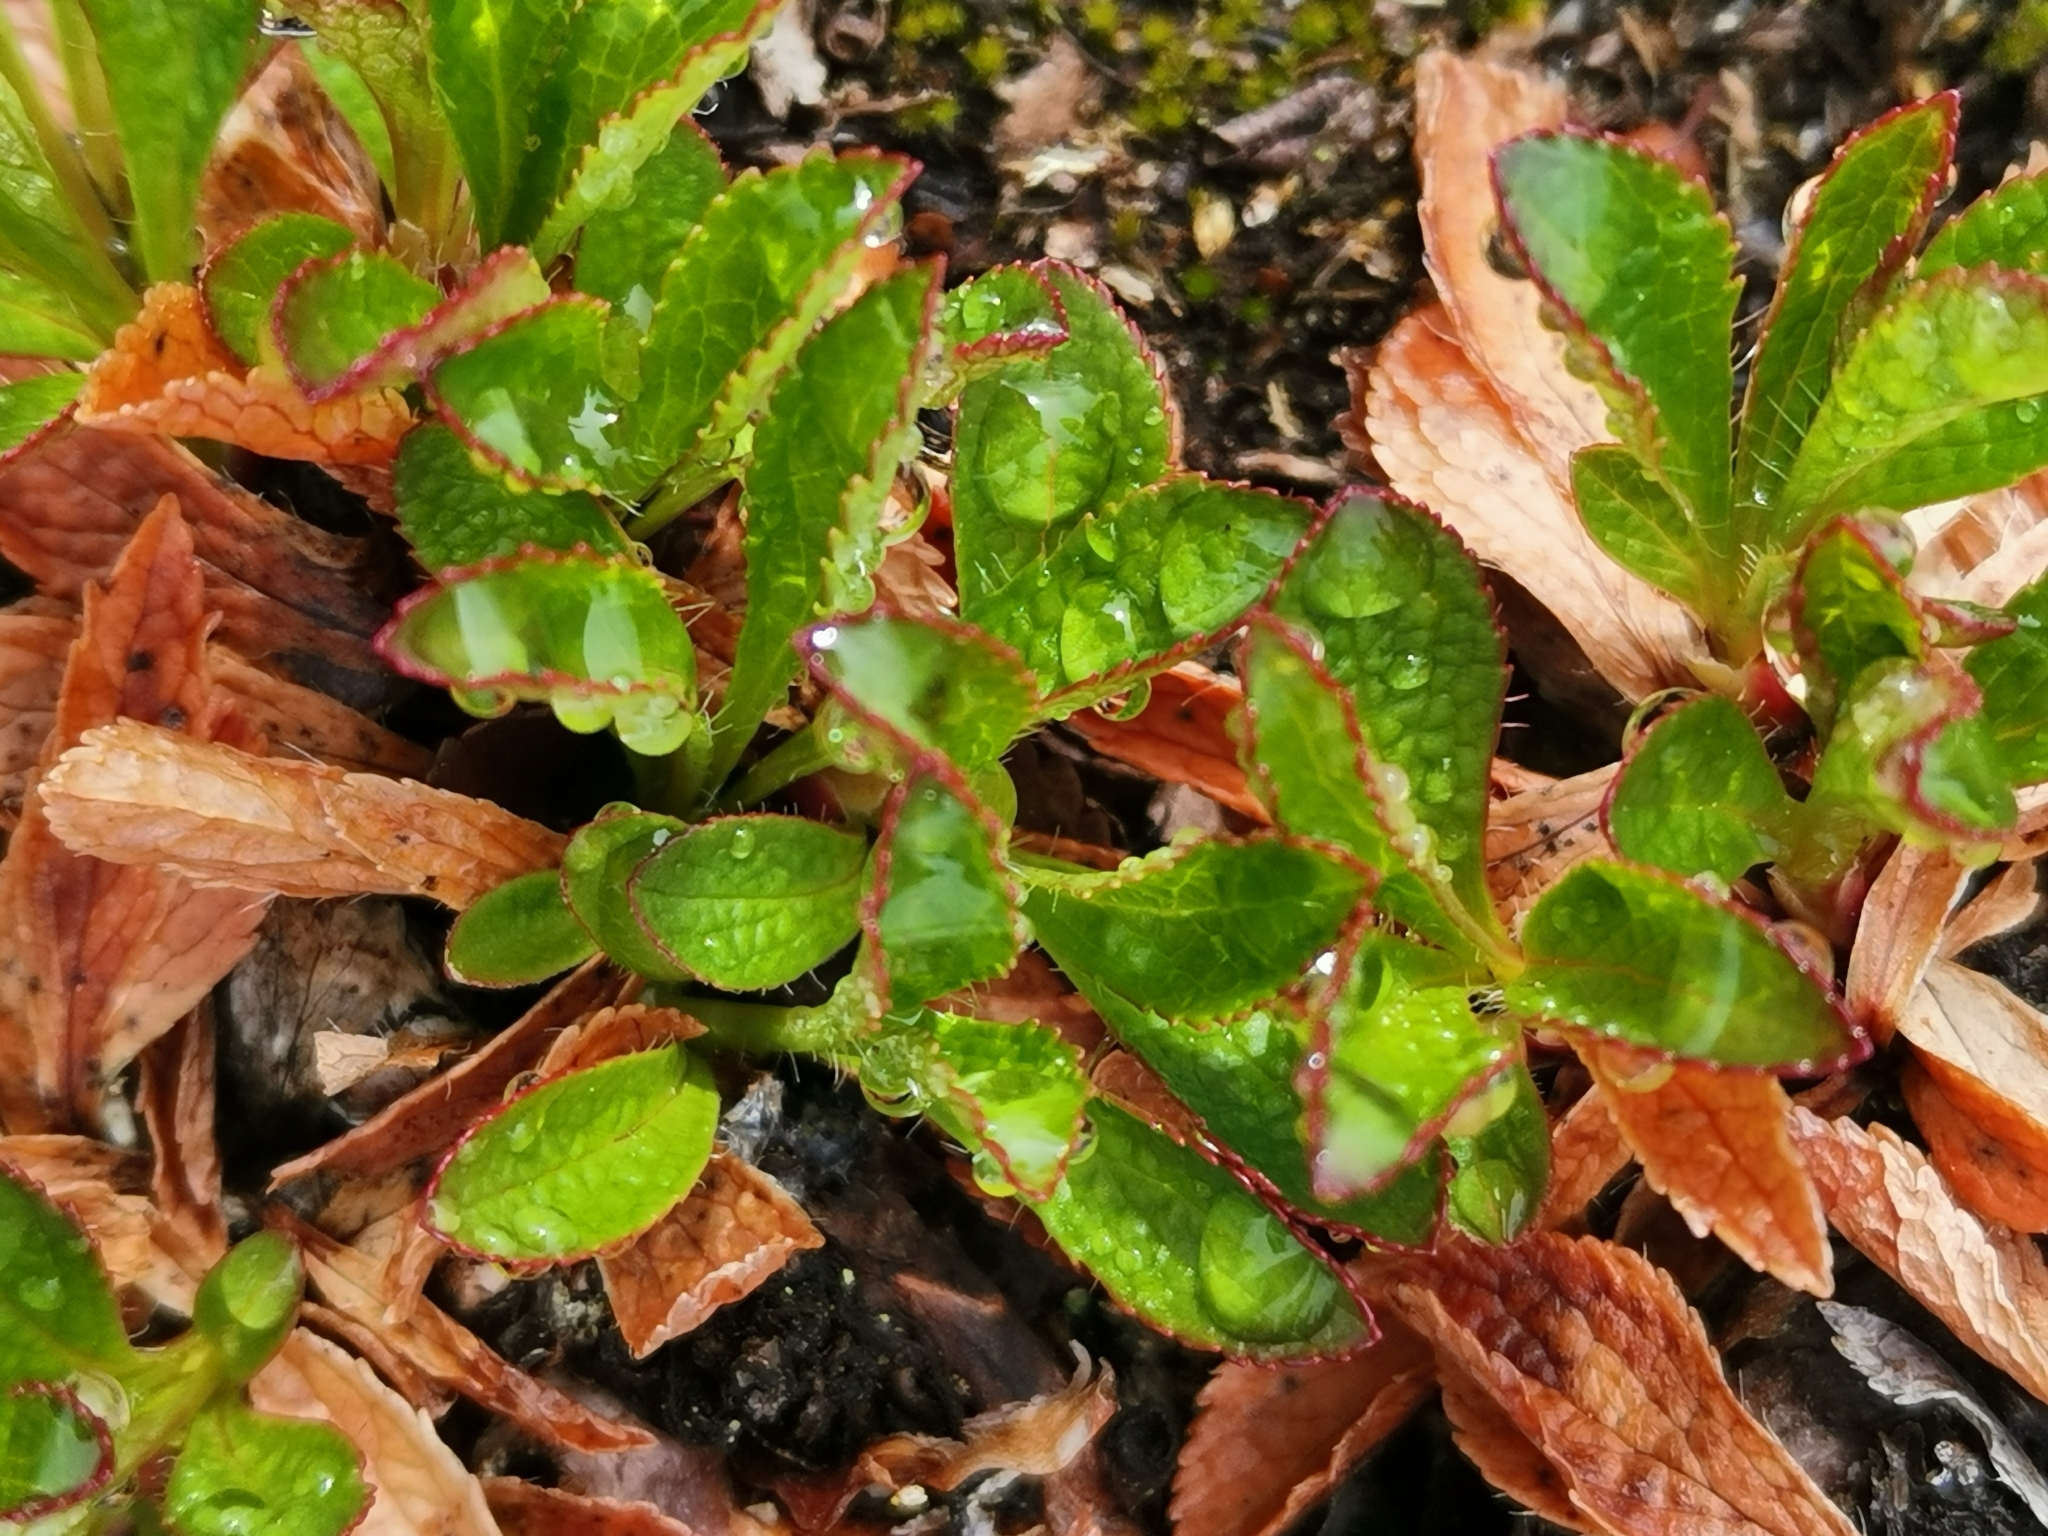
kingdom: Plantae
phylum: Tracheophyta
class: Magnoliopsida
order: Ericales
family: Ericaceae
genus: Arctostaphylos
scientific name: Arctostaphylos alpinus
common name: Alpine bearberry
